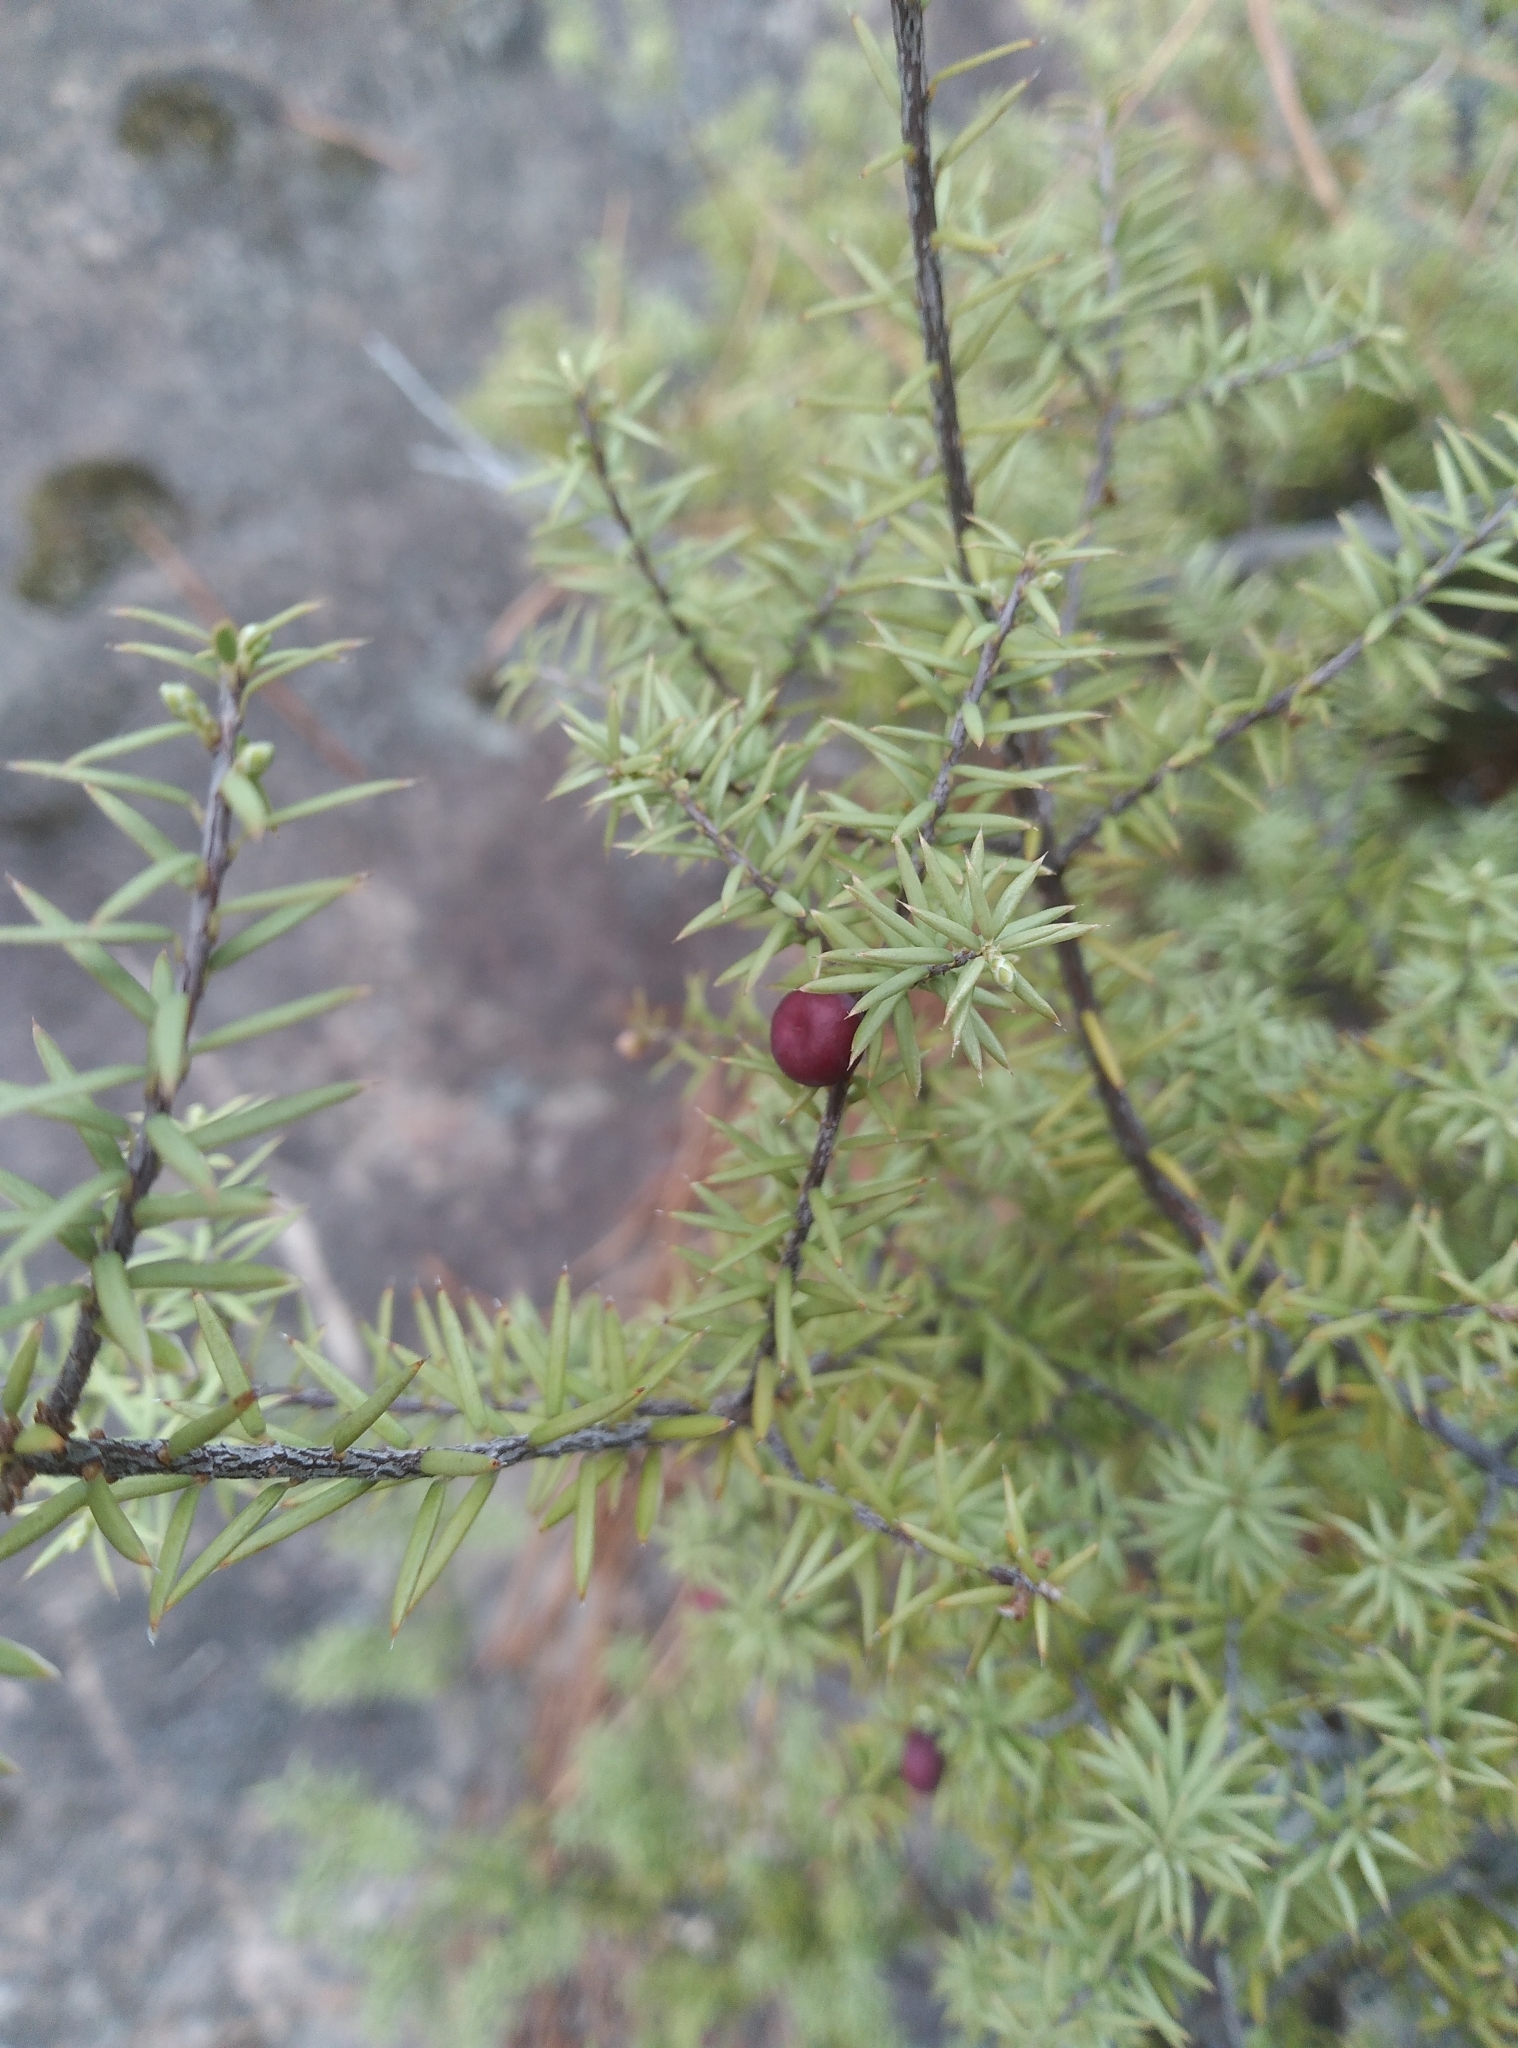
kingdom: Plantae
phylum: Tracheophyta
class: Magnoliopsida
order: Ericales
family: Ericaceae
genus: Leptecophylla
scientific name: Leptecophylla juniperina
